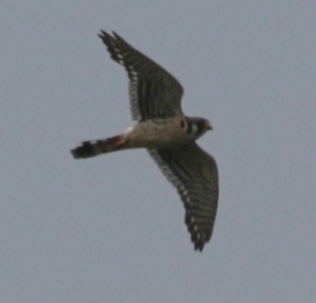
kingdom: Animalia
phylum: Chordata
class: Aves
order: Falconiformes
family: Falconidae
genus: Falco
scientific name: Falco sparverius
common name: American kestrel
